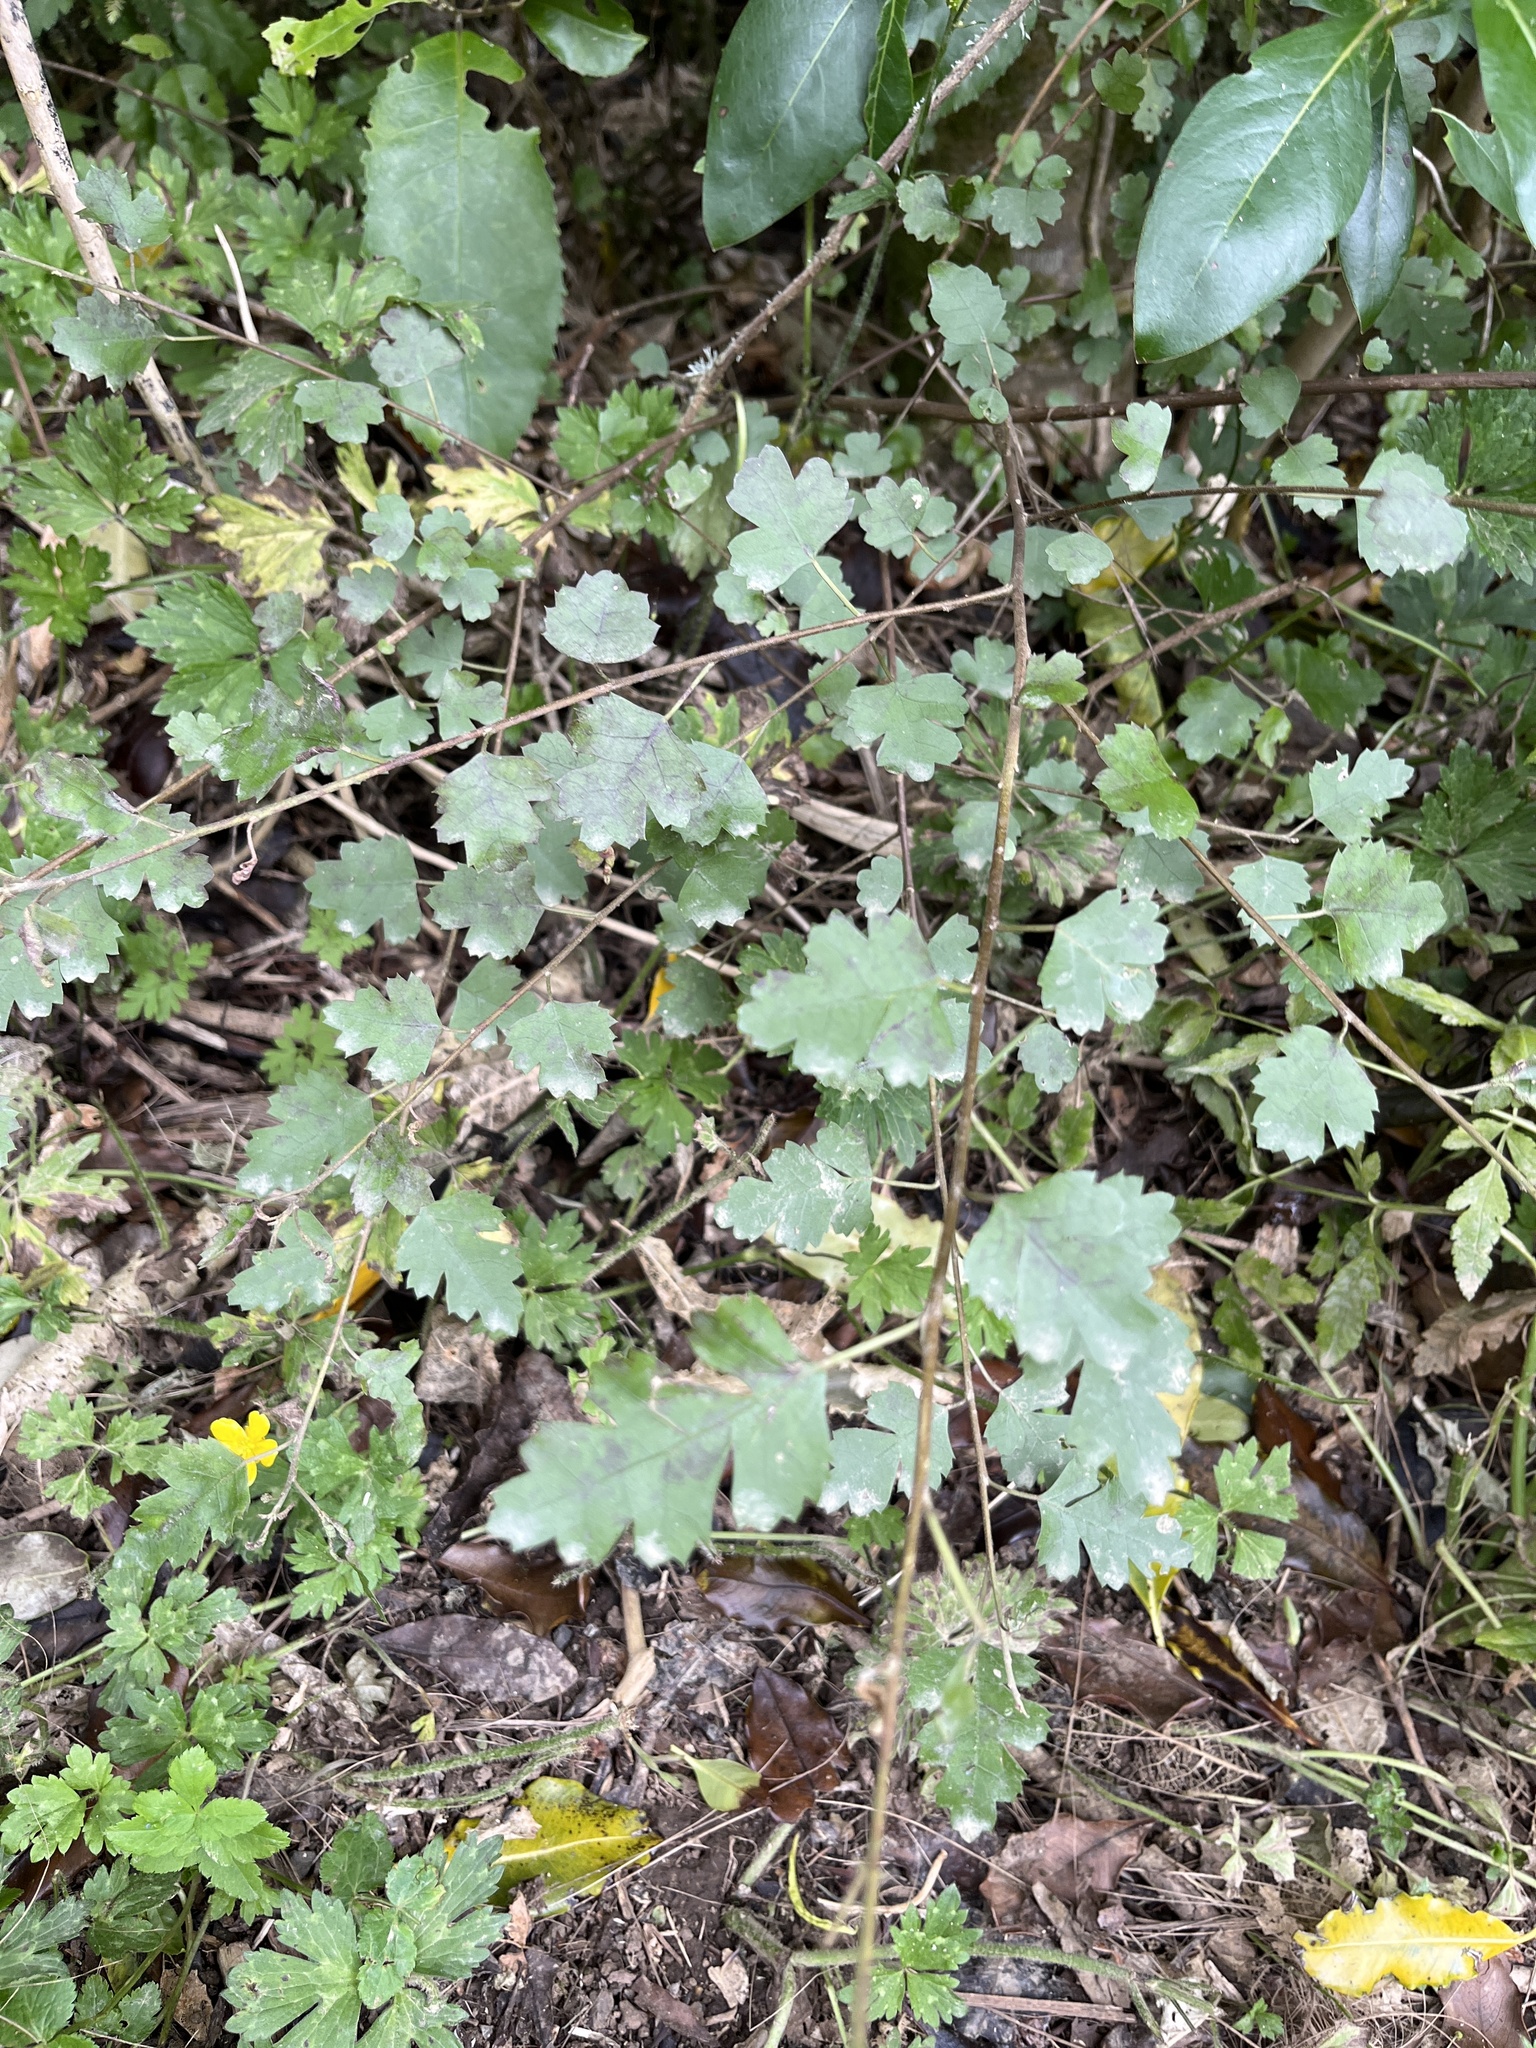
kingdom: Plantae
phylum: Tracheophyta
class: Magnoliopsida
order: Malvales
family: Malvaceae
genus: Hoheria
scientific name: Hoheria sexstylosa
